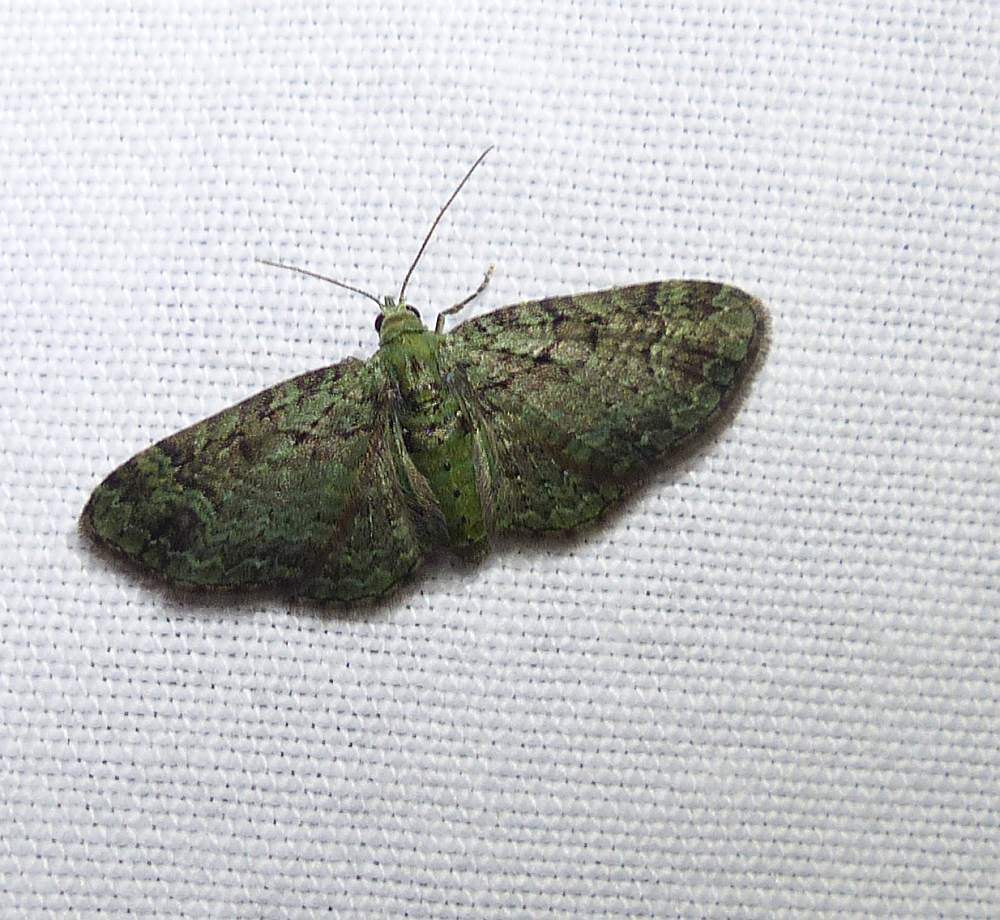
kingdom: Animalia
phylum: Arthropoda
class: Insecta
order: Lepidoptera
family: Geometridae
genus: Pasiphila
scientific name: Pasiphila rectangulata
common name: Green pug
